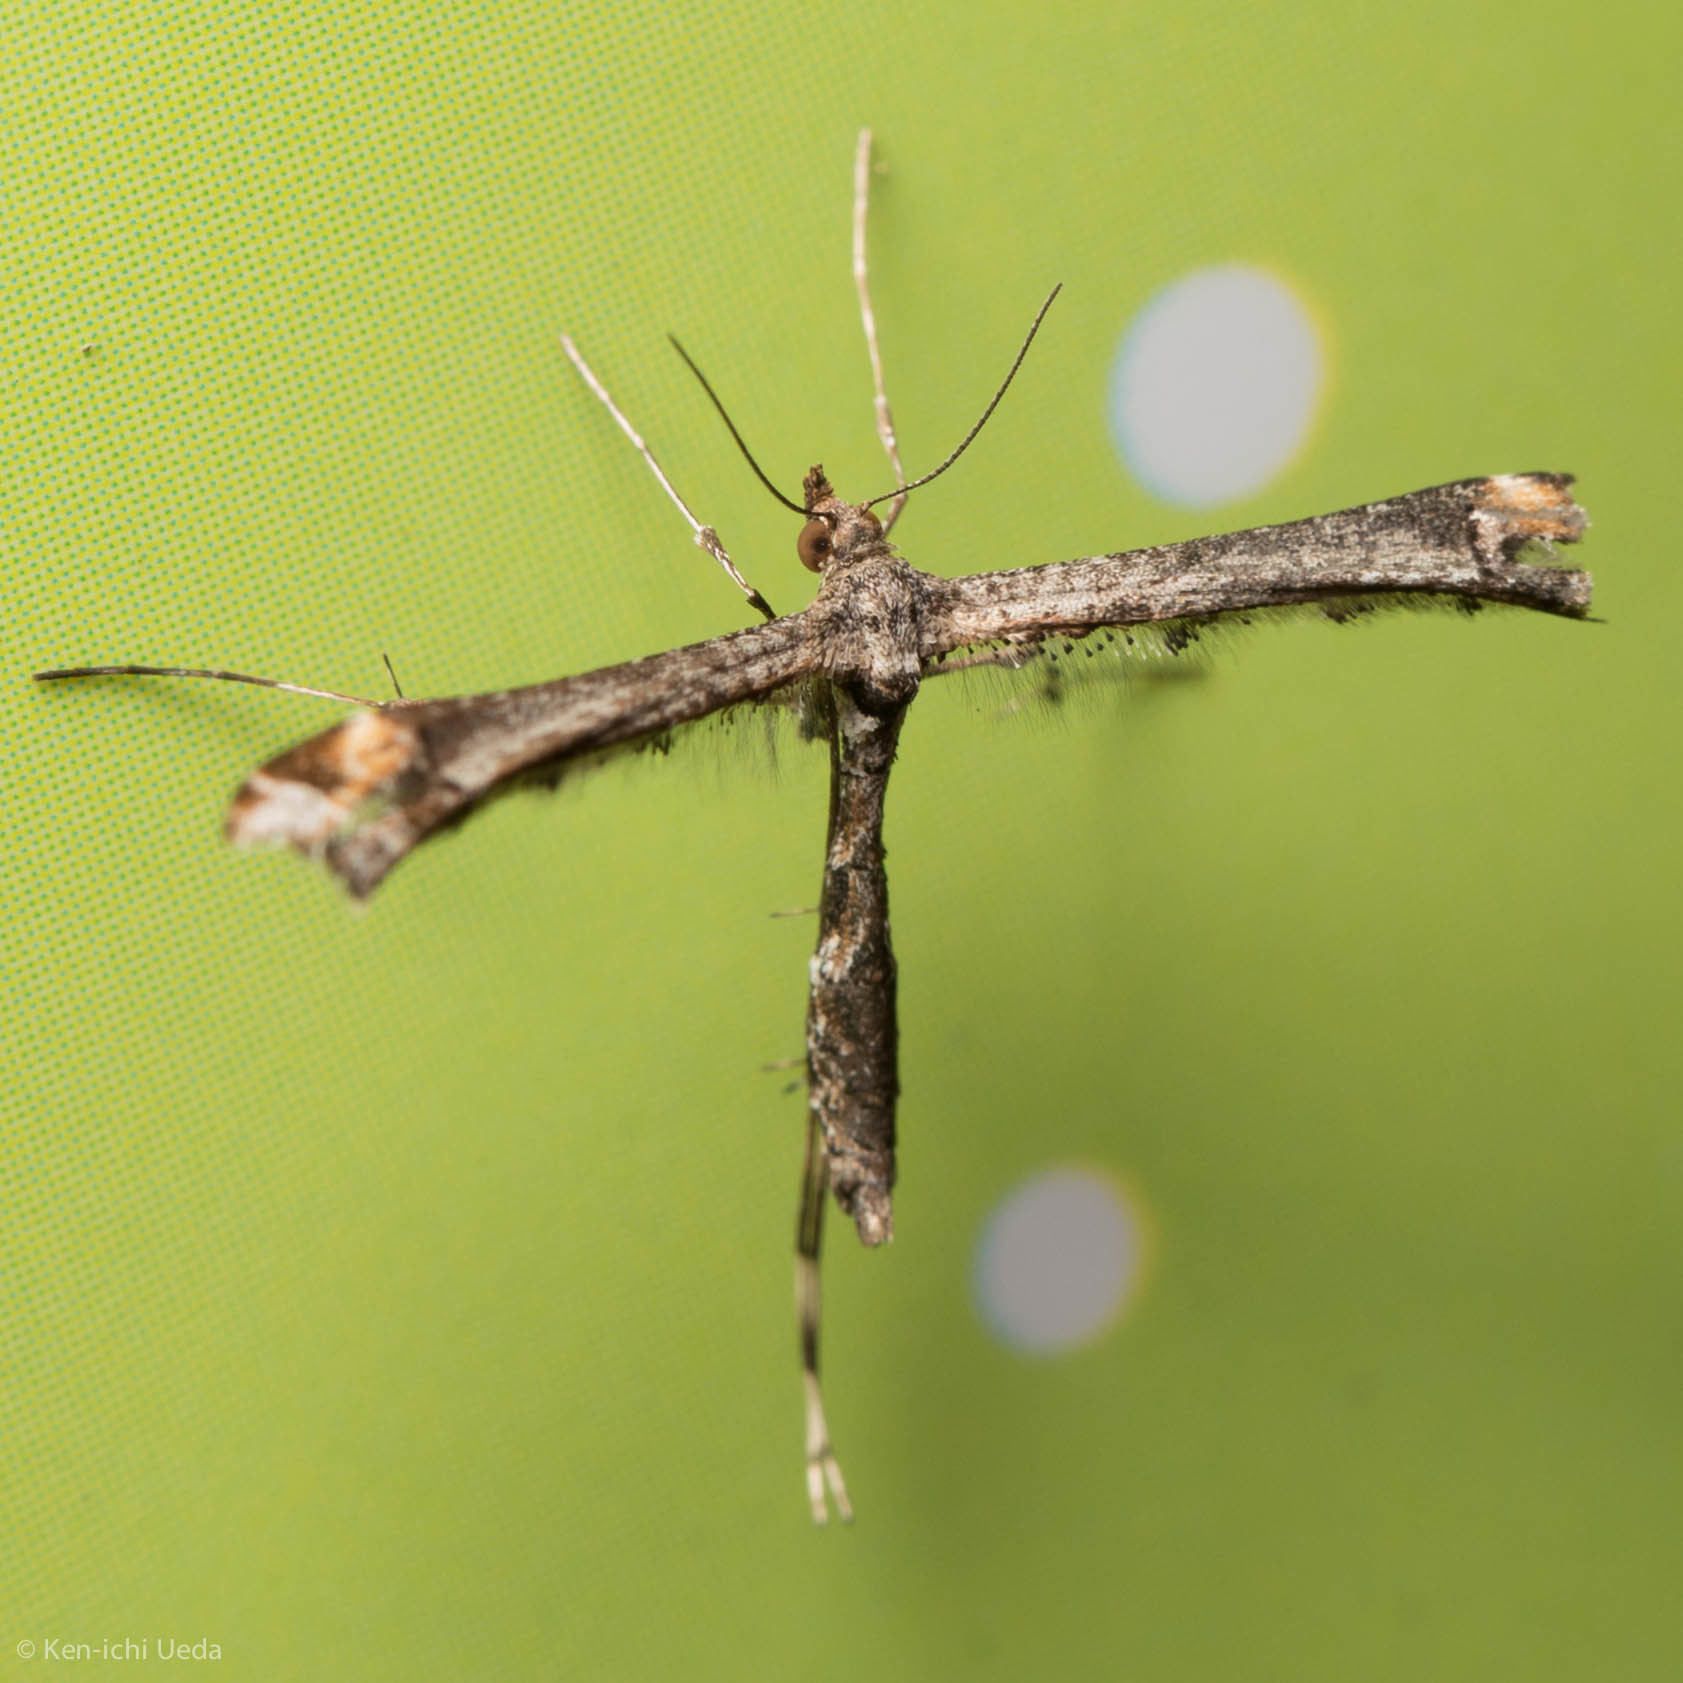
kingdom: Animalia
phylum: Arthropoda
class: Insecta
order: Lepidoptera
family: Pterophoridae
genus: Anstenoptilia
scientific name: Anstenoptilia marmarodactyla
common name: Moth
